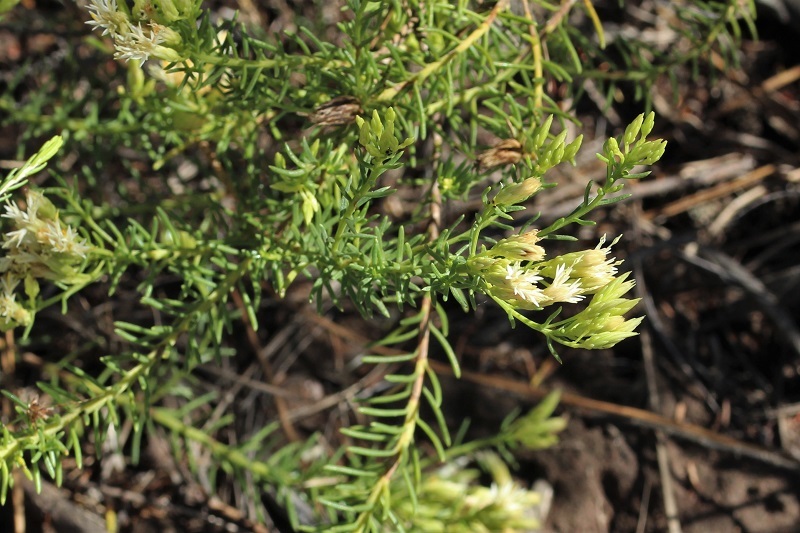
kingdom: Plantae
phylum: Tracheophyta
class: Magnoliopsida
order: Asterales
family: Asteraceae
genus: Pteronia
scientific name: Pteronia teretifolia
